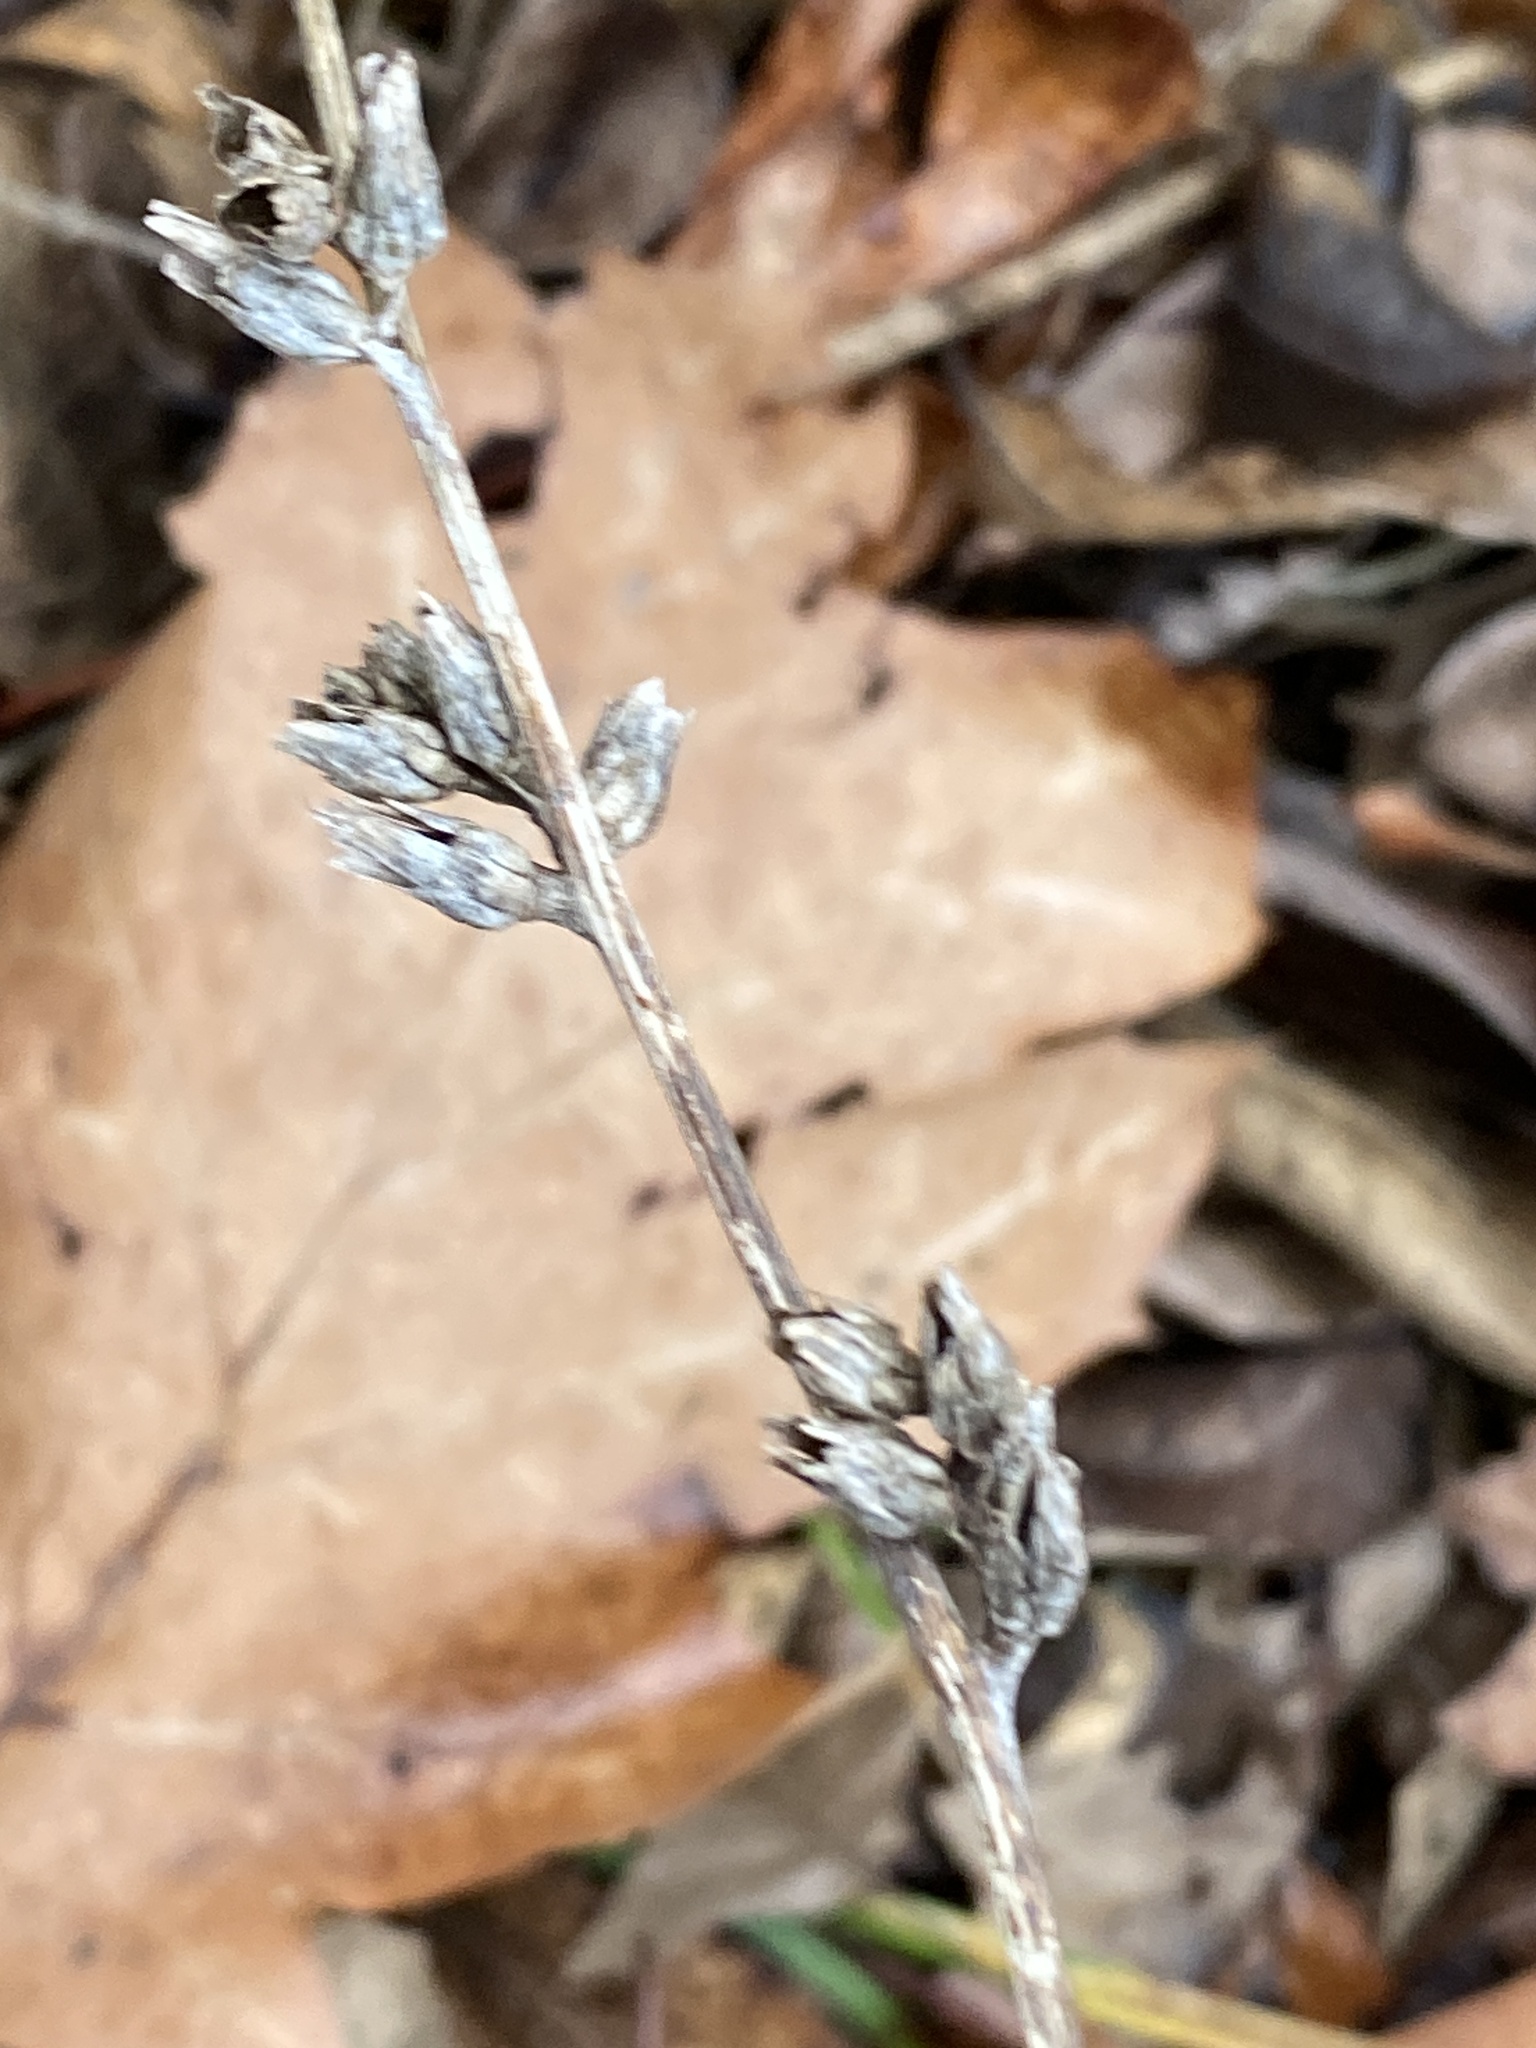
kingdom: Plantae
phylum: Tracheophyta
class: Magnoliopsida
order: Asterales
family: Asteraceae
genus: Cichorium
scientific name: Cichorium intybus
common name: Chicory
